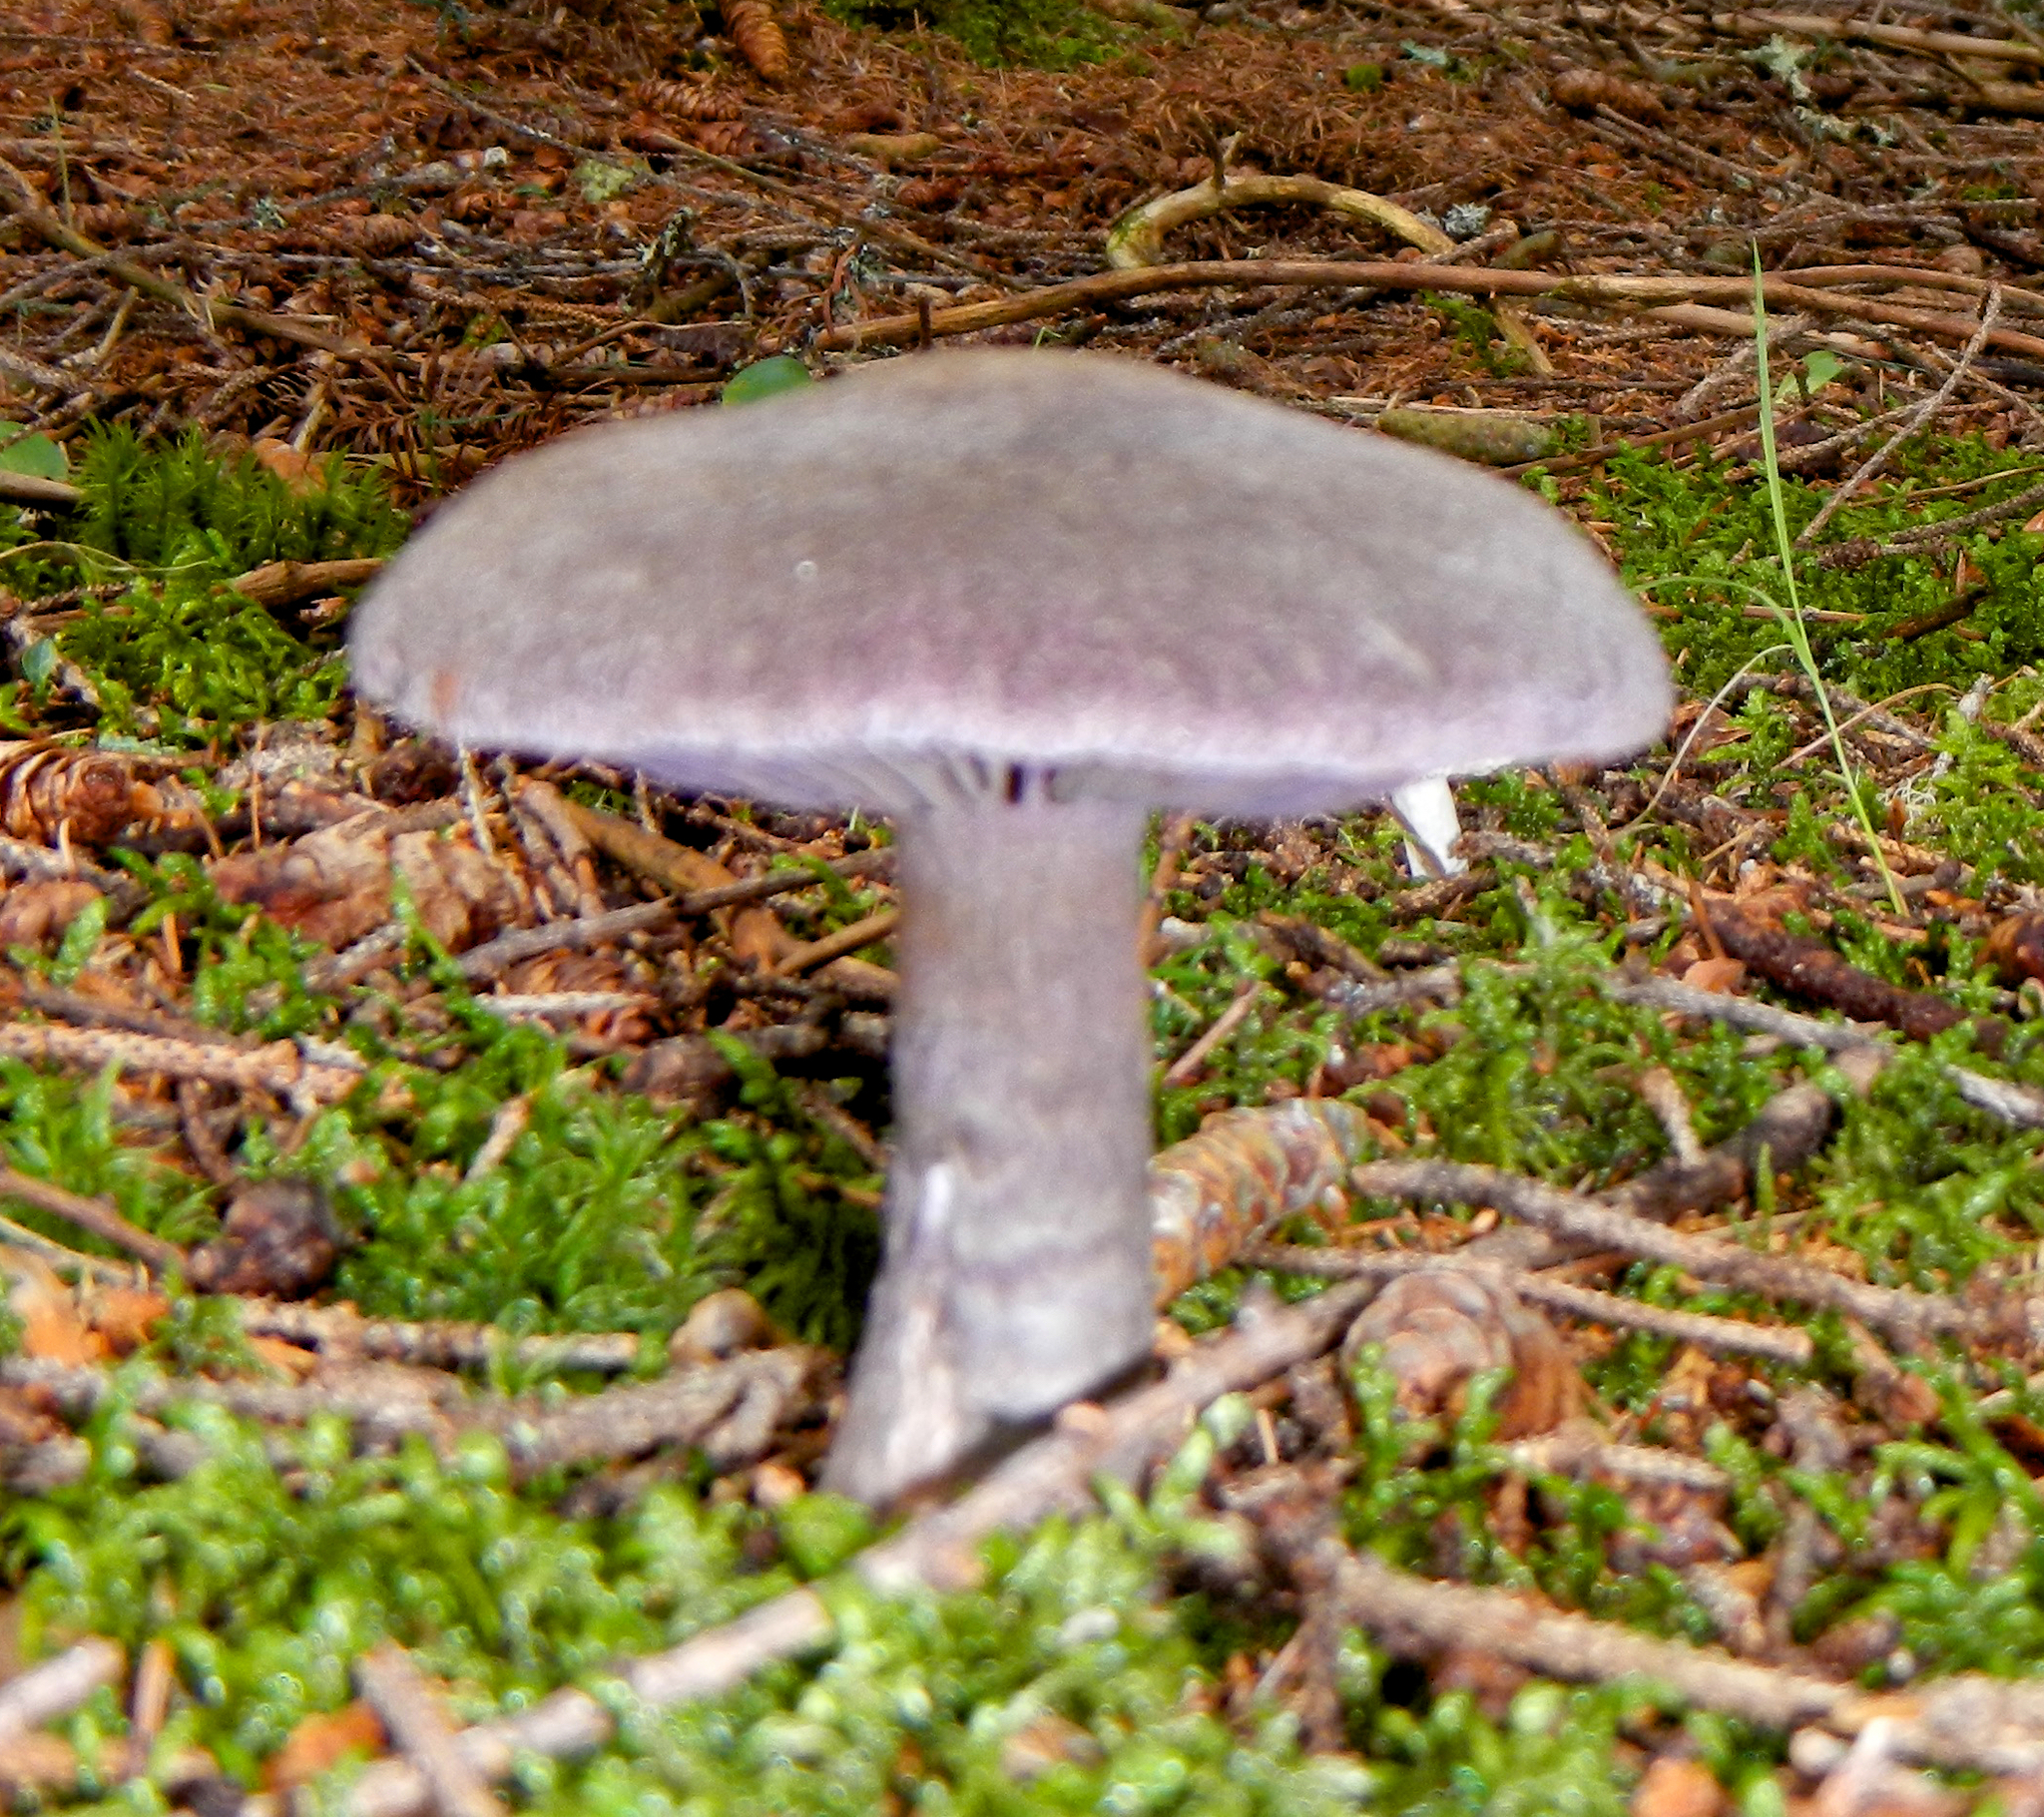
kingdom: Fungi
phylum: Basidiomycota
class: Agaricomycetes
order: Agaricales
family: Cortinariaceae
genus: Cortinarius
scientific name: Cortinarius violaceus
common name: Violet webcap
